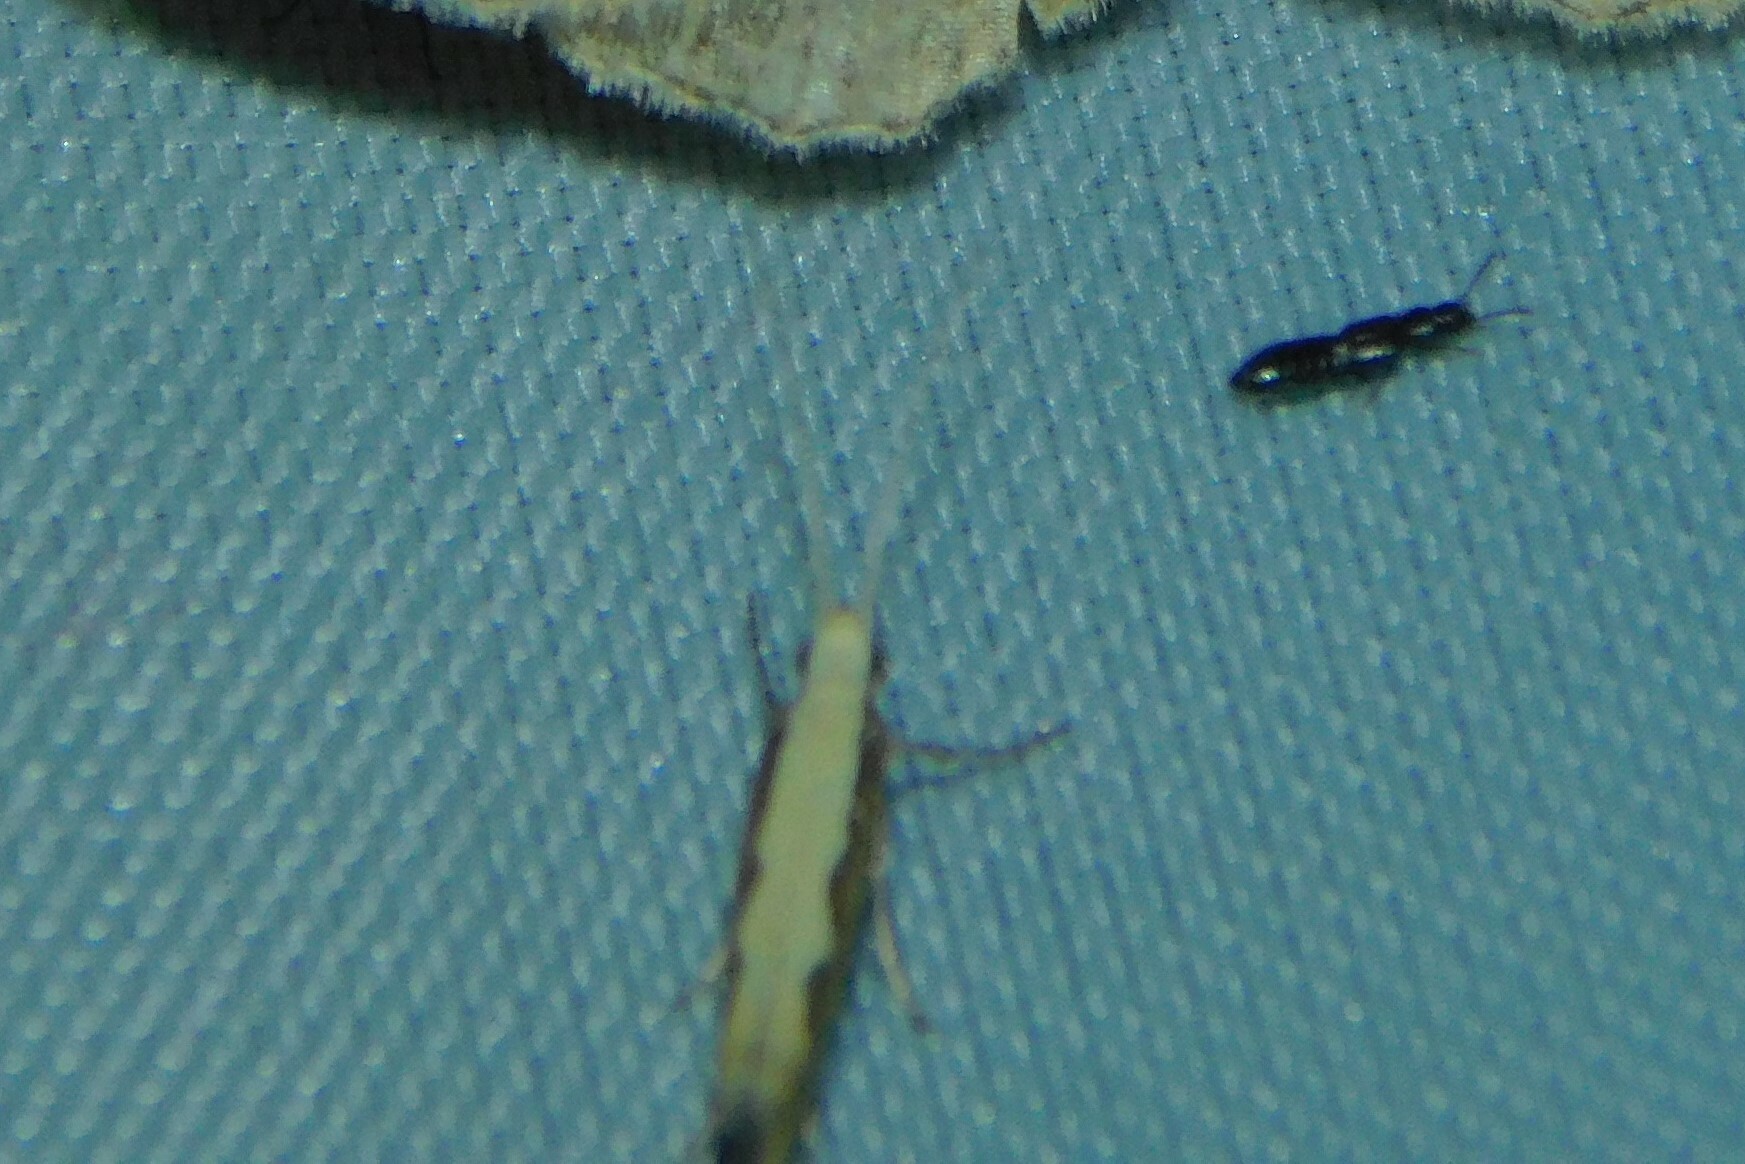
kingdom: Animalia
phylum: Arthropoda
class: Insecta
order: Lepidoptera
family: Plutellidae
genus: Plutella
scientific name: Plutella xylostella
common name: Diamond-back moth
